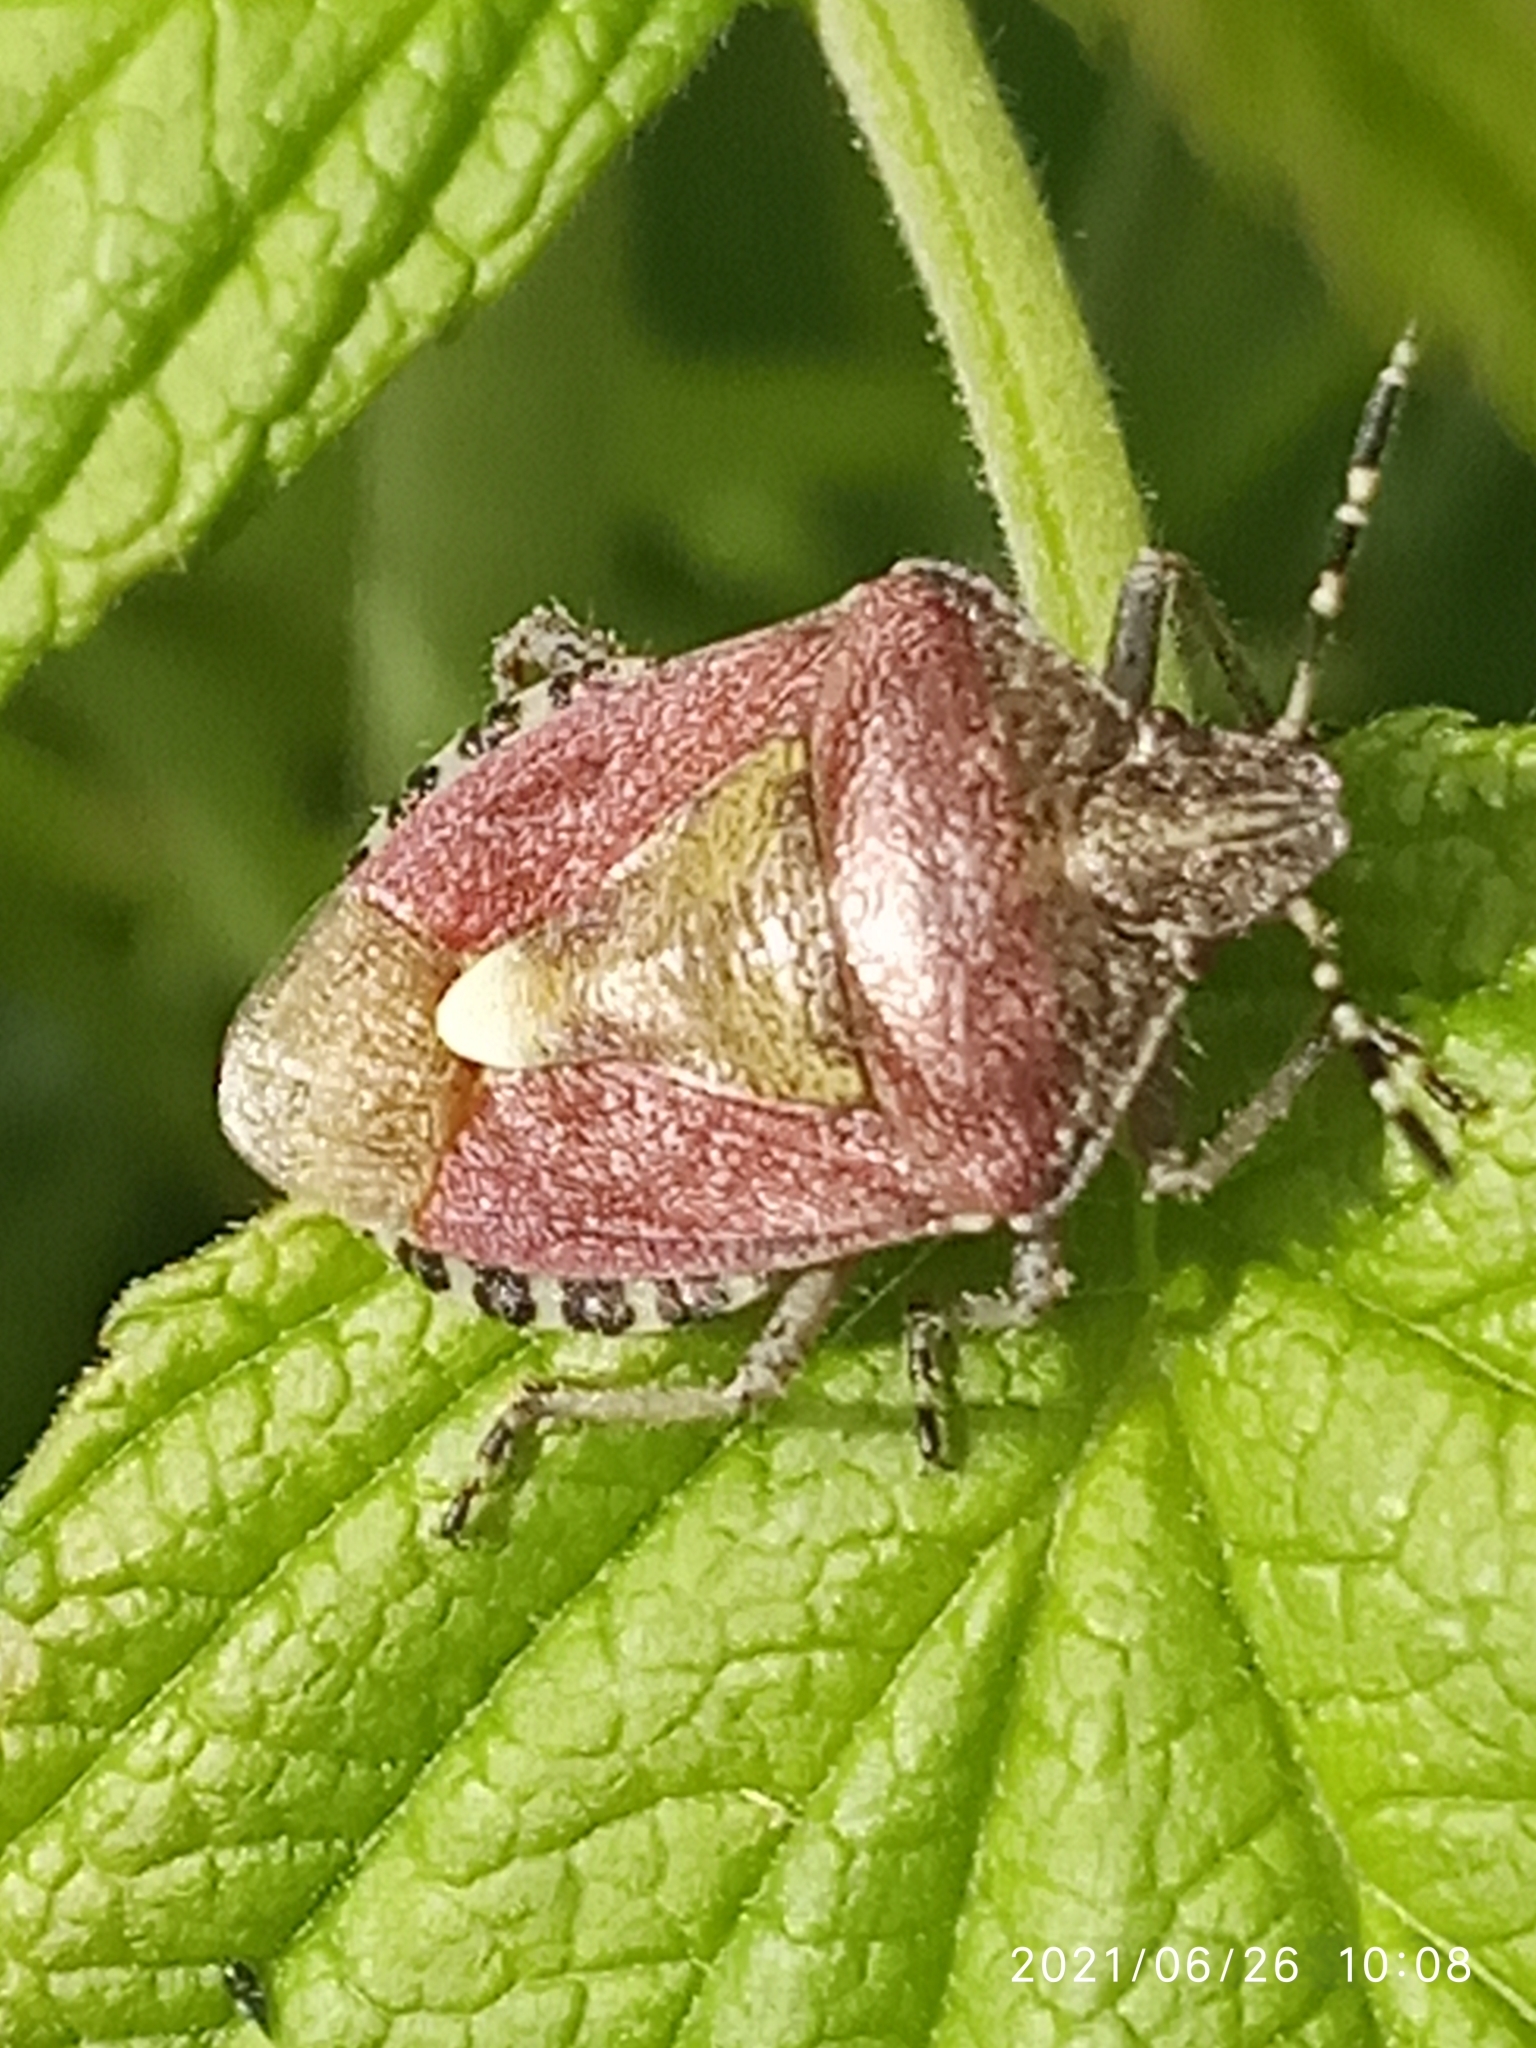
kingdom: Animalia
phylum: Arthropoda
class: Insecta
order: Hemiptera
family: Pentatomidae
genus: Dolycoris
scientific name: Dolycoris baccarum
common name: Sloe bug
